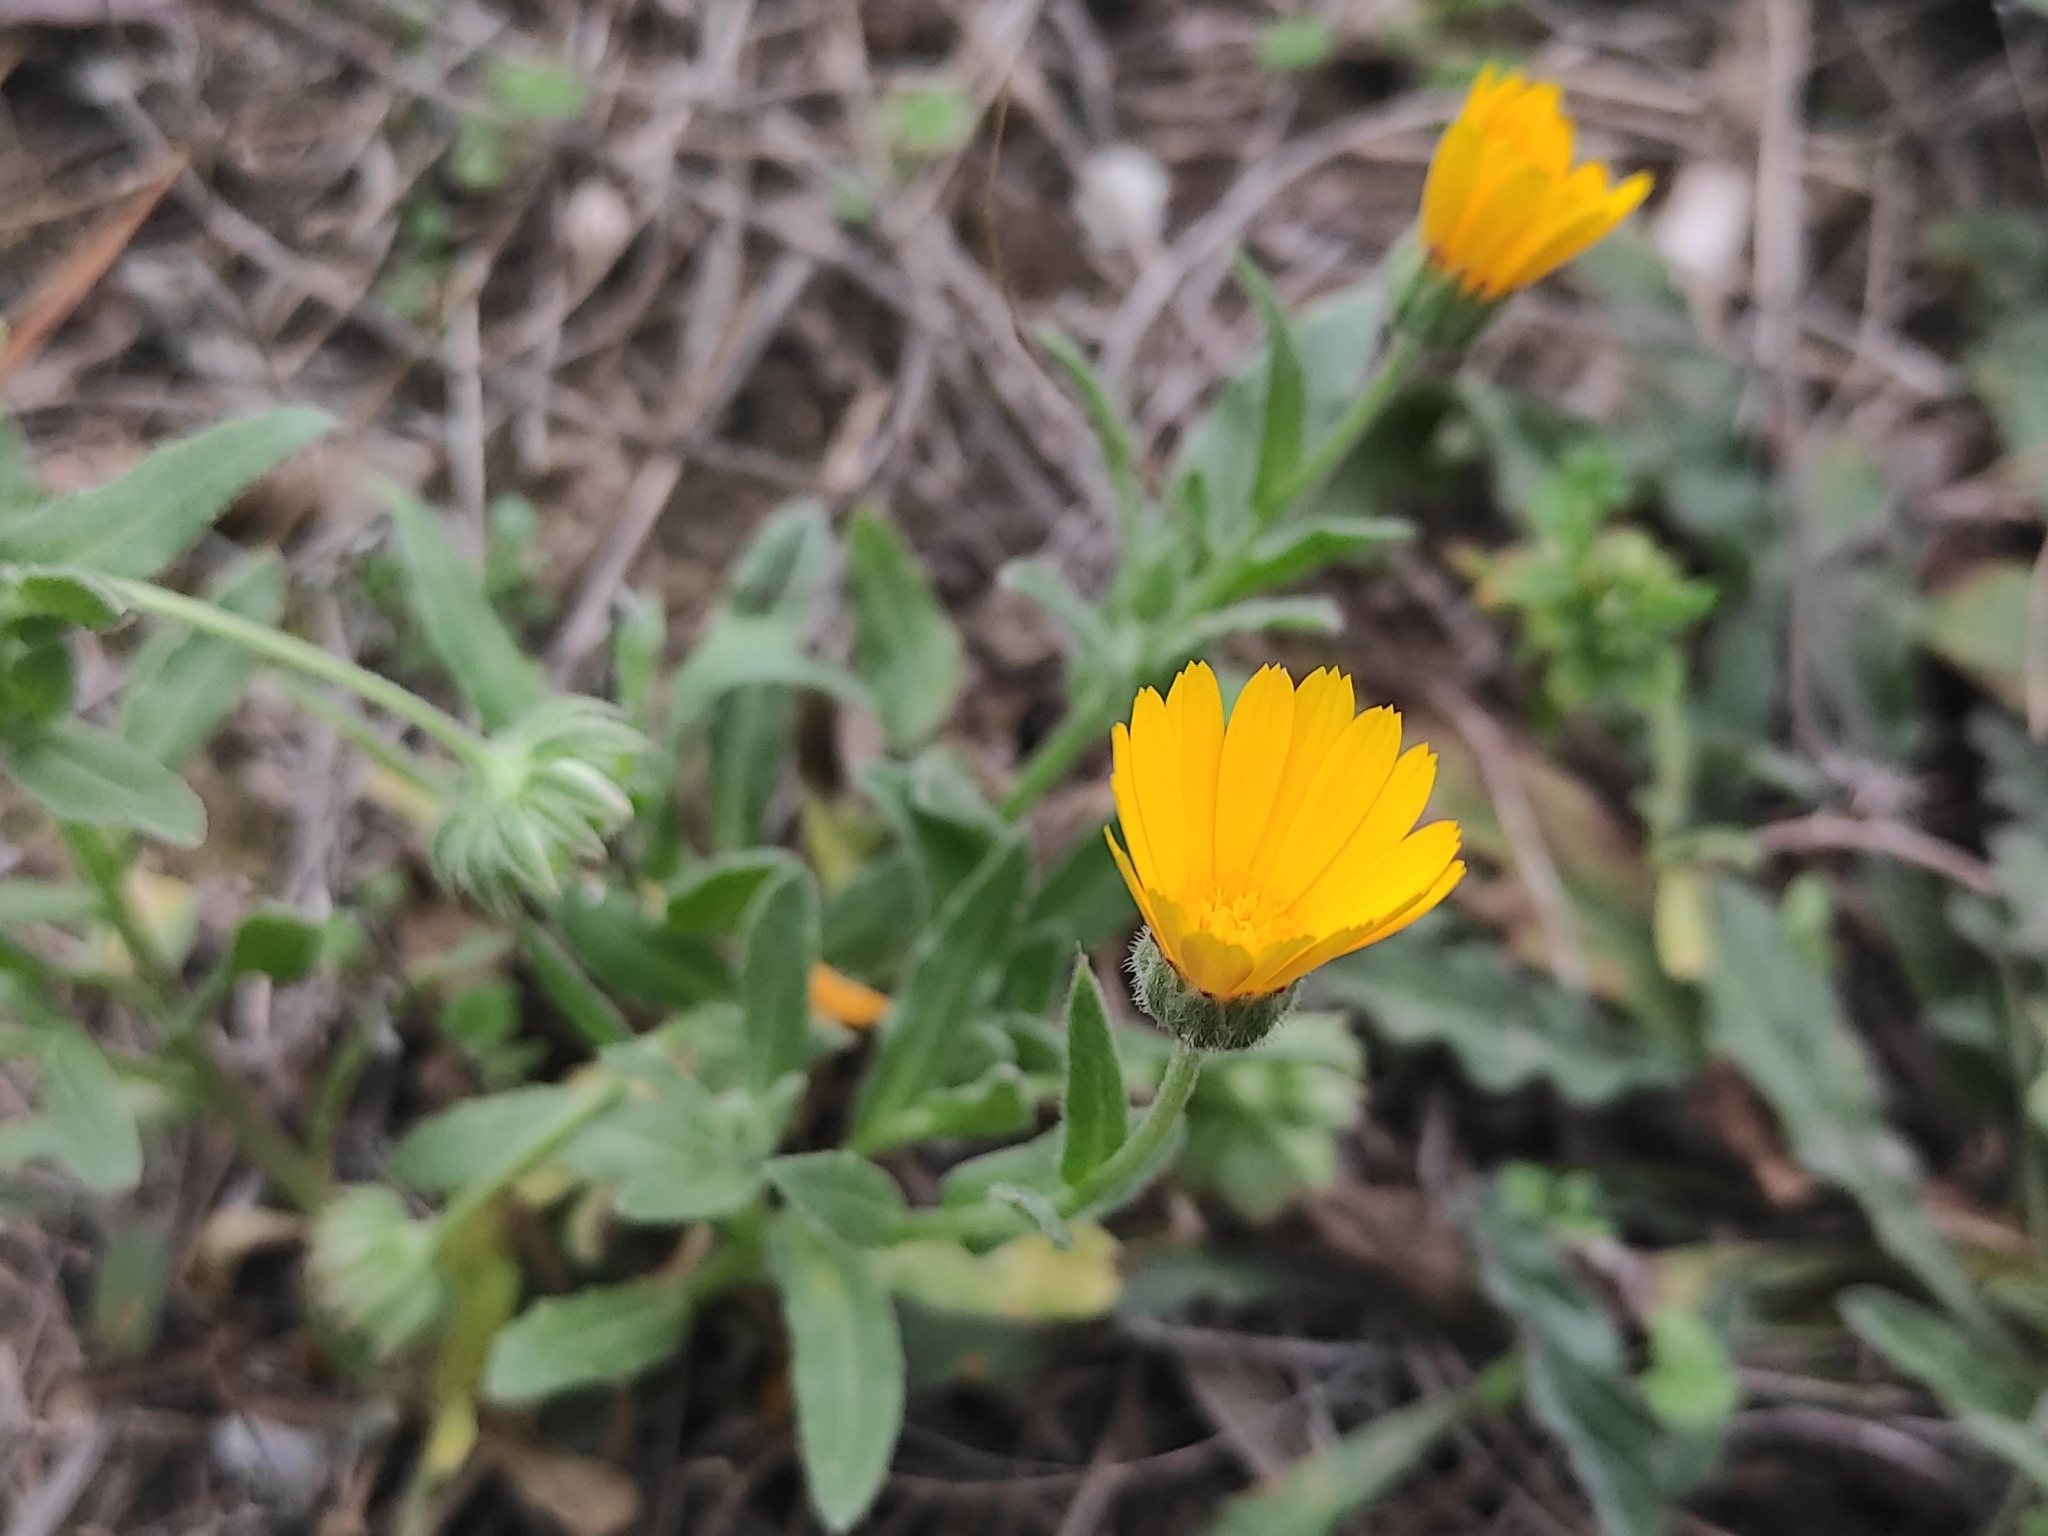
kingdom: Plantae
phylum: Tracheophyta
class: Magnoliopsida
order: Asterales
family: Asteraceae
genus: Calendula
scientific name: Calendula arvensis
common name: Field marigold
